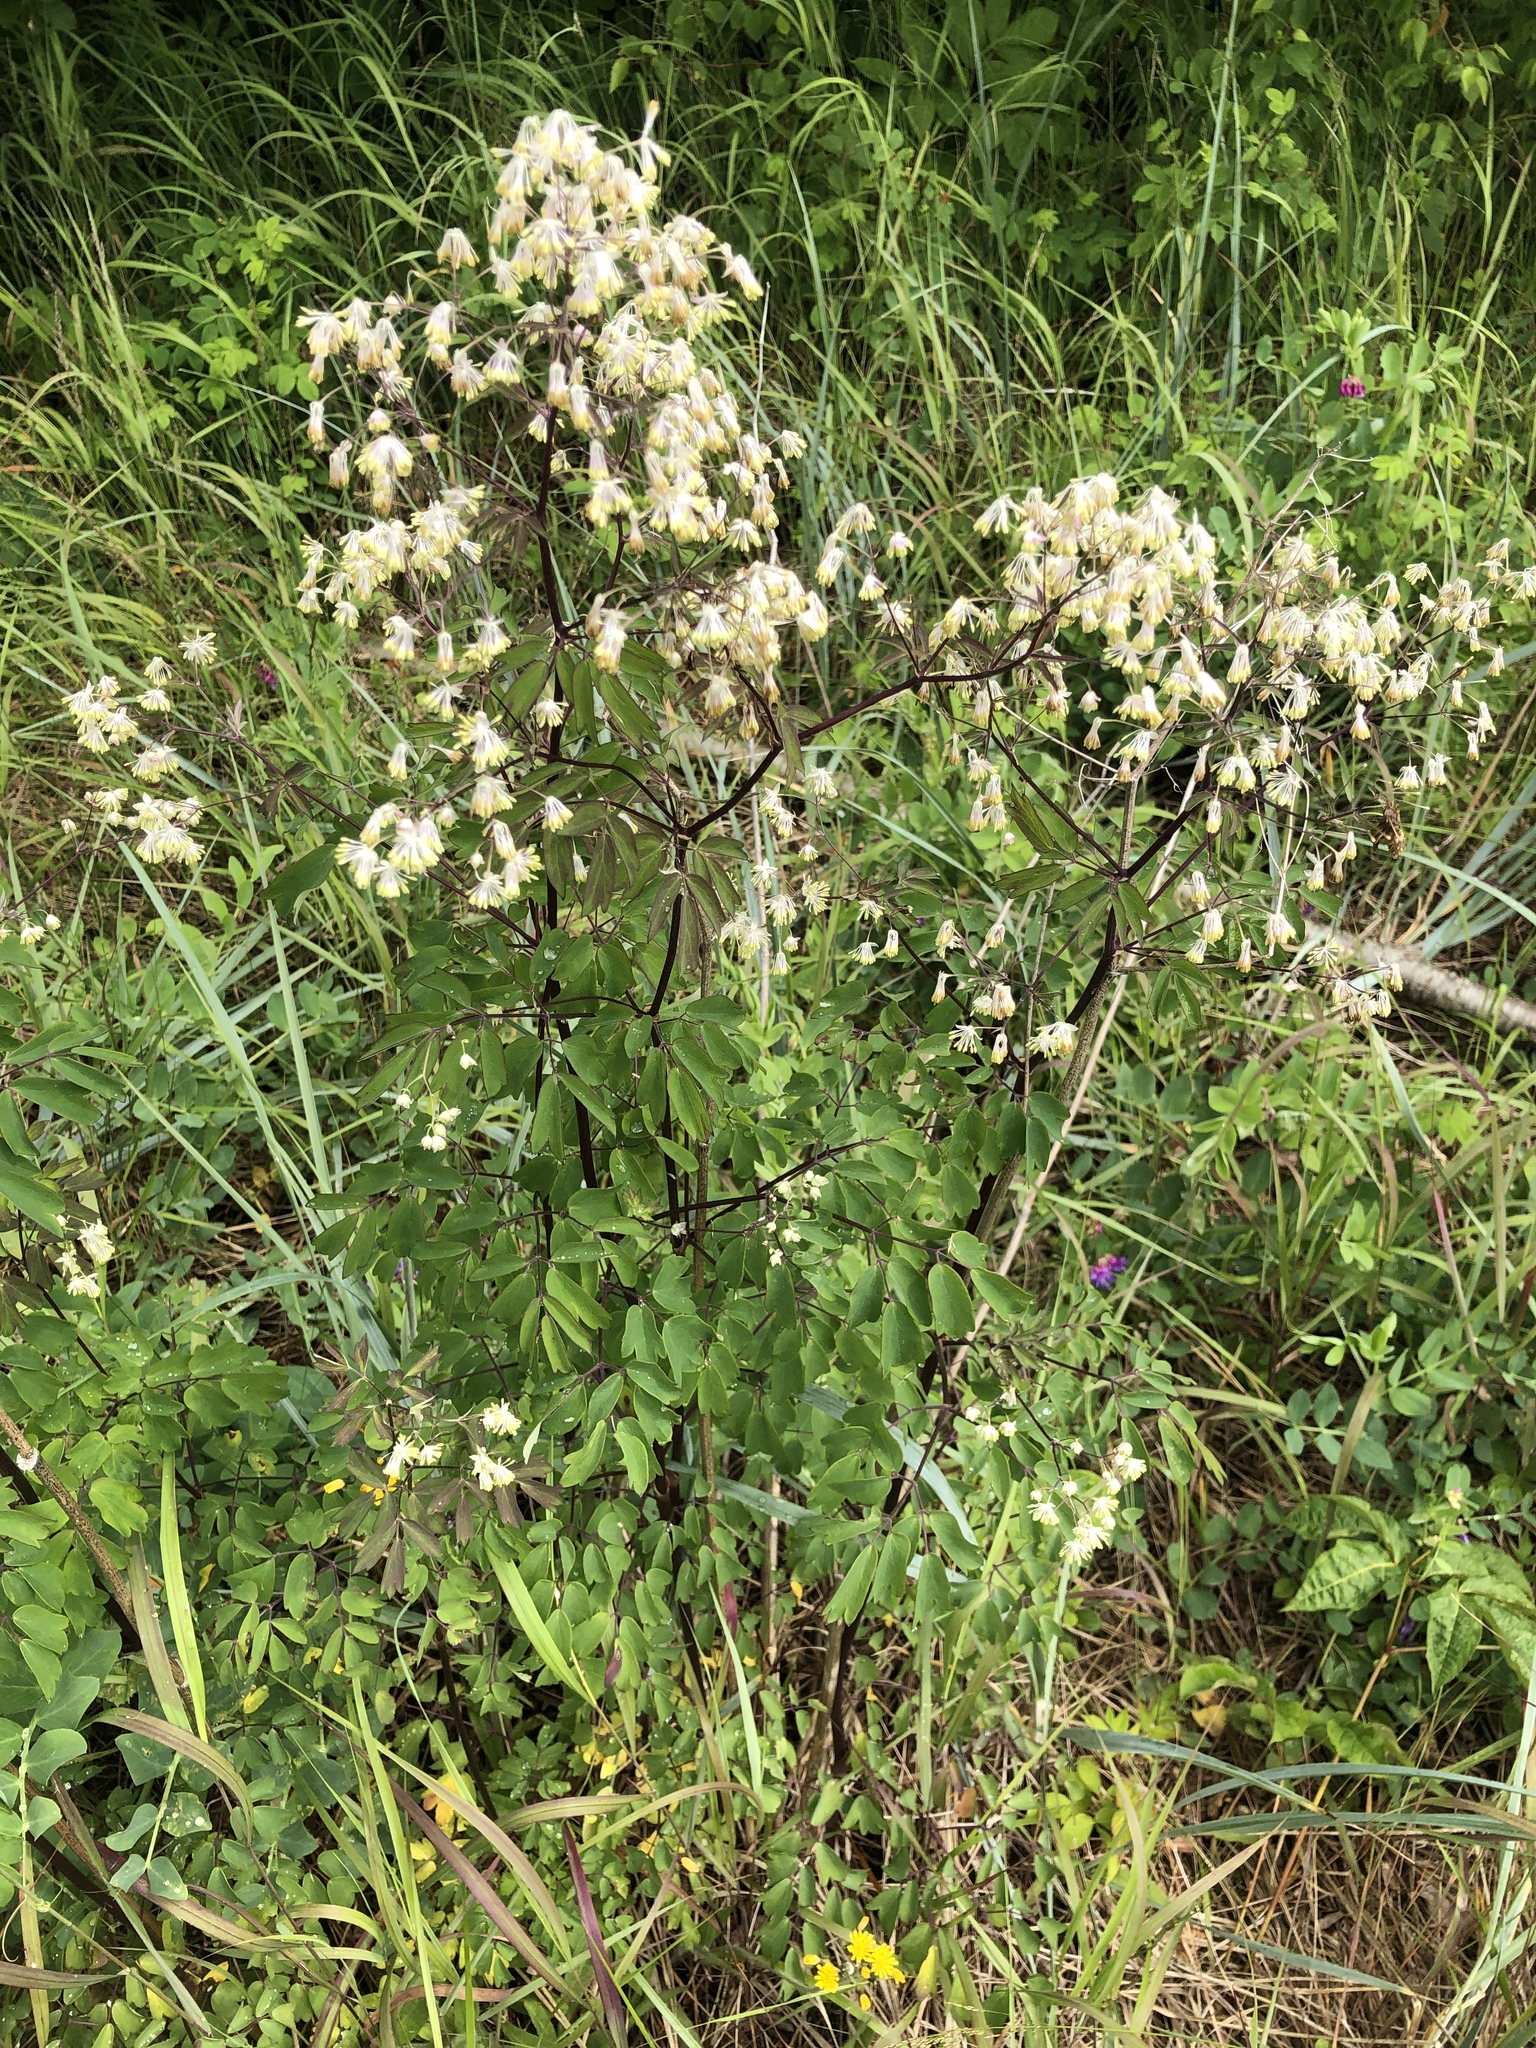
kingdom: Plantae
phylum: Tracheophyta
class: Magnoliopsida
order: Ranunculales
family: Ranunculaceae
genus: Thalictrum
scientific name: Thalictrum dasycarpum
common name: Purple meadow-rue
